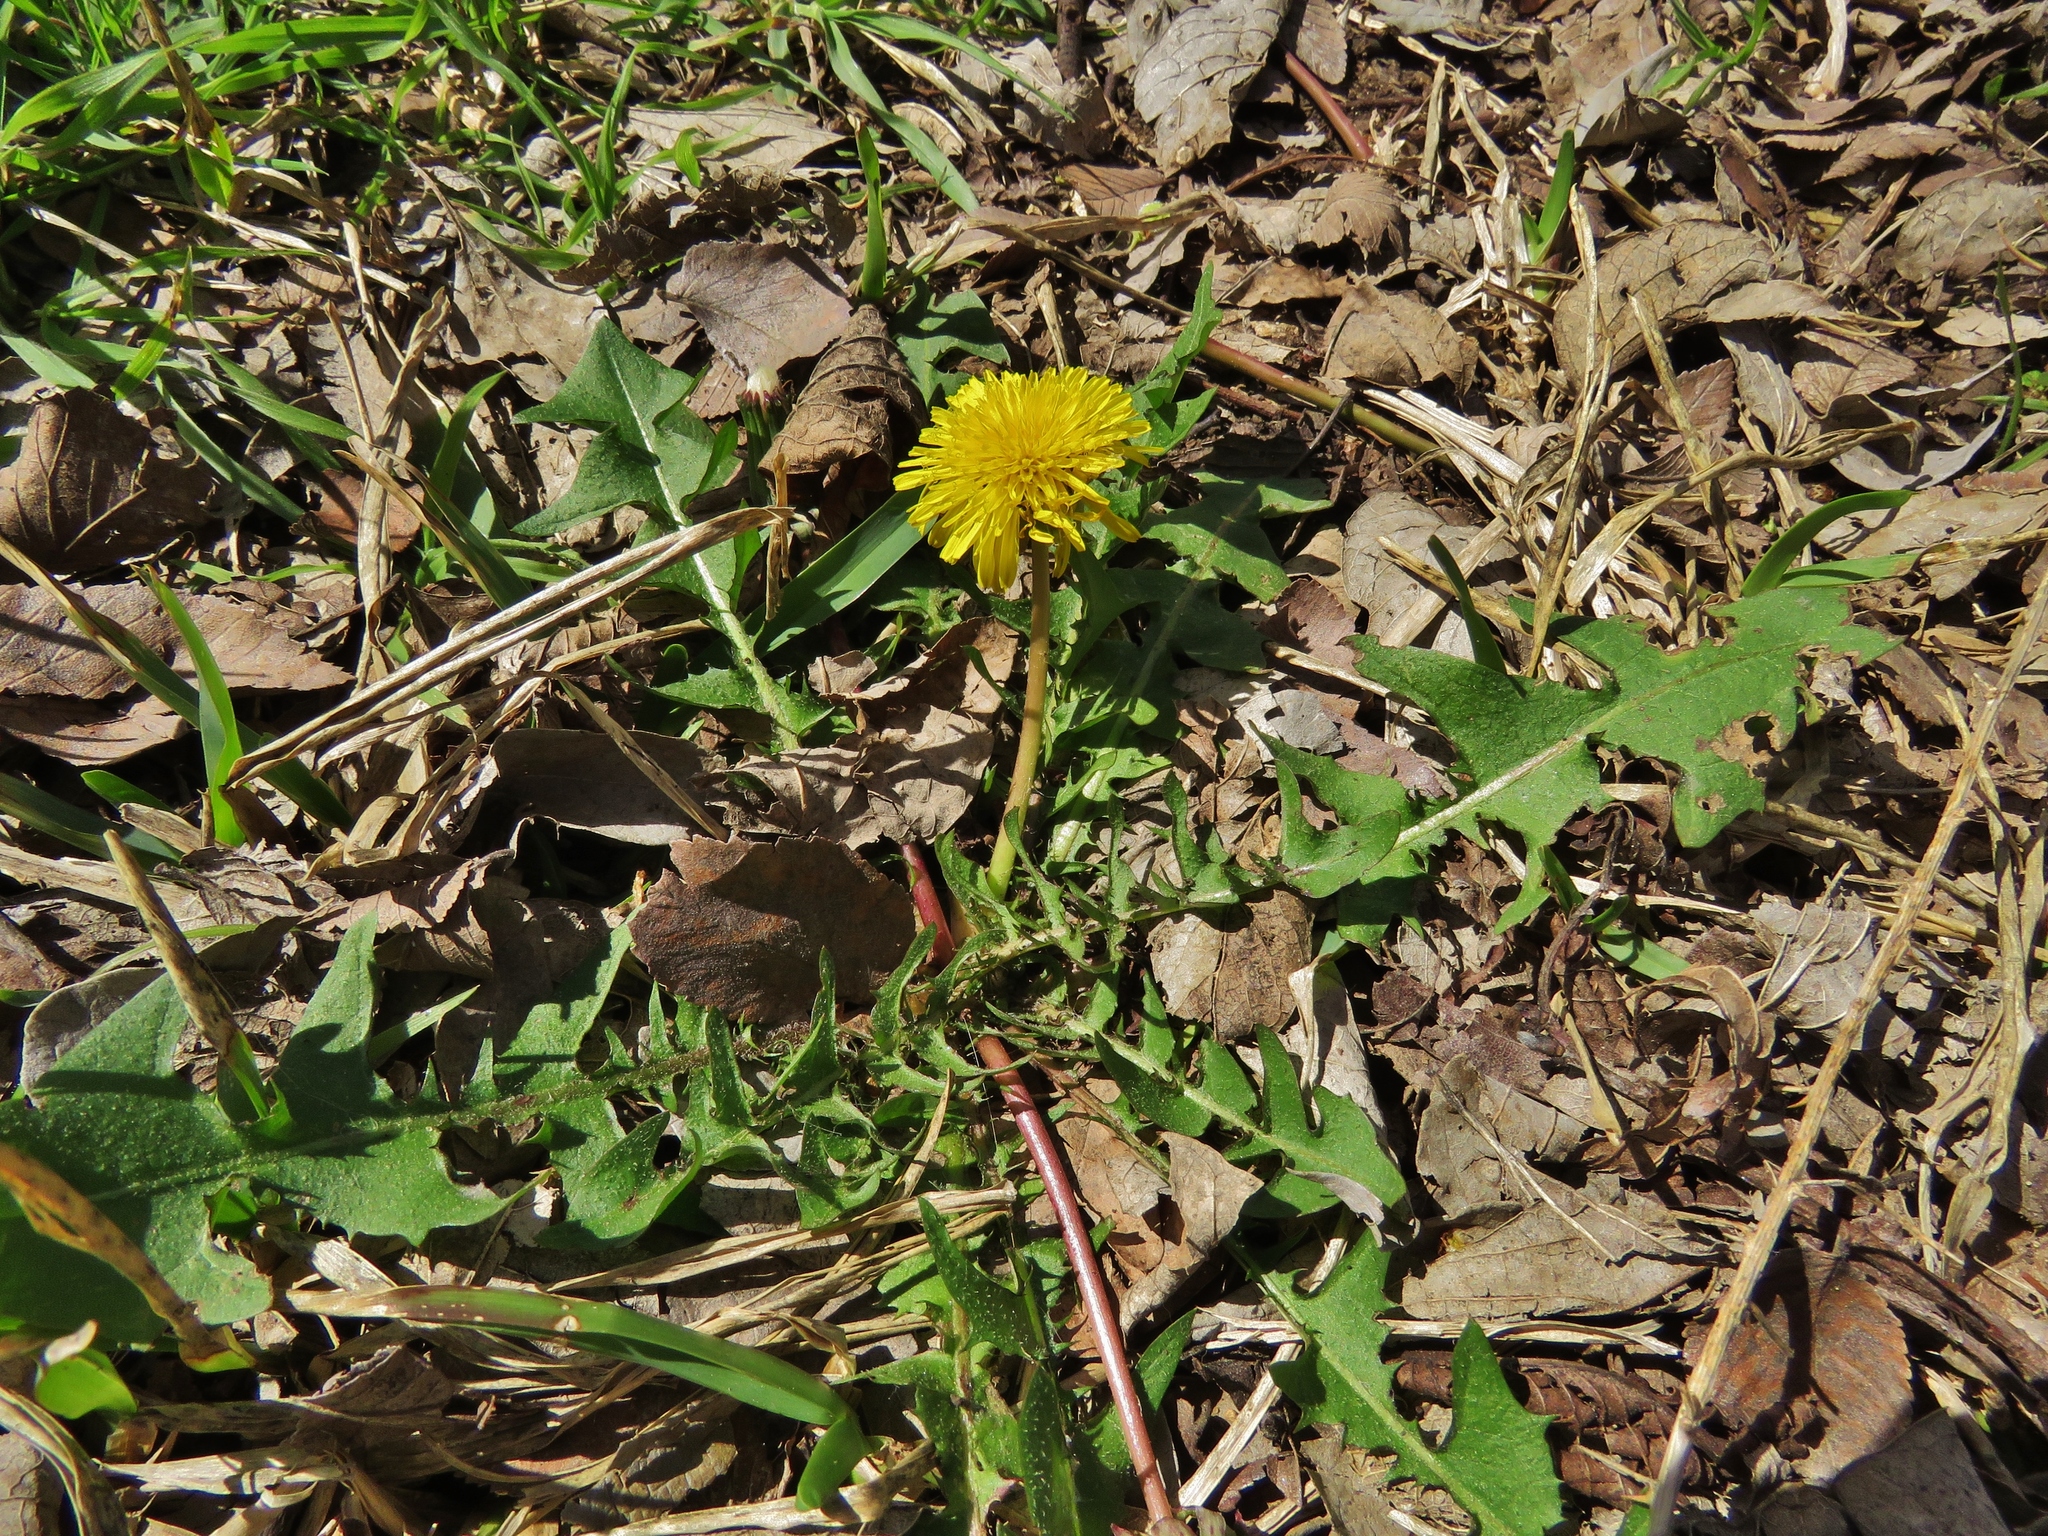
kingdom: Plantae
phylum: Tracheophyta
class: Magnoliopsida
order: Asterales
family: Asteraceae
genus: Taraxacum
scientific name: Taraxacum officinale
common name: Common dandelion
